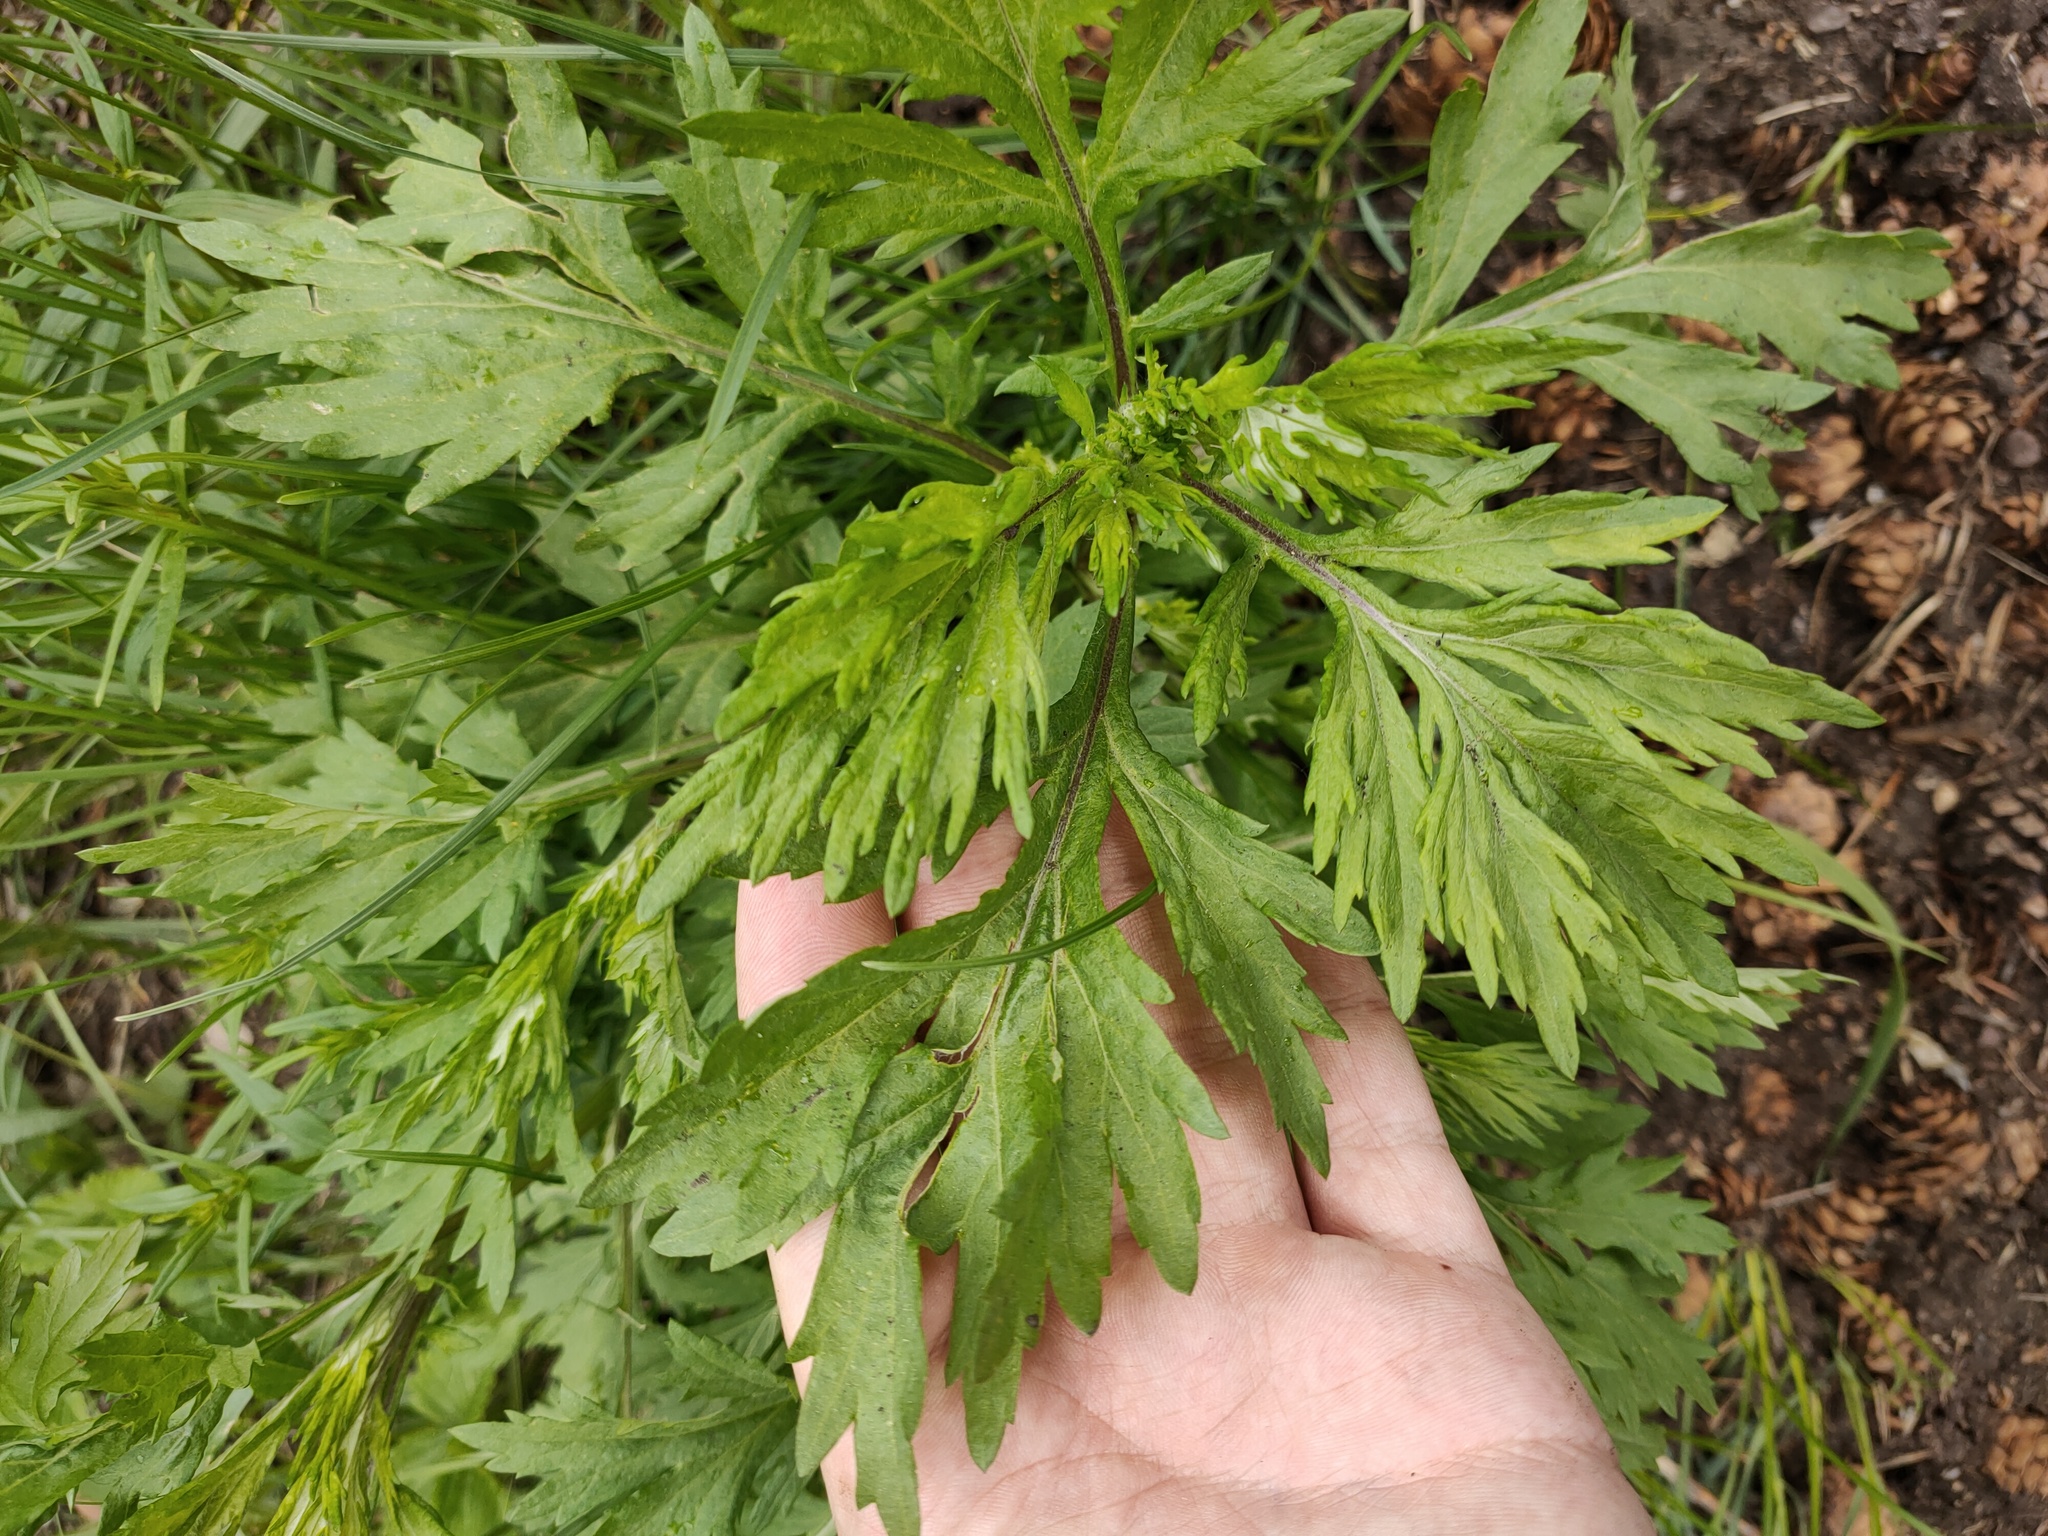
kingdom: Plantae
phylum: Tracheophyta
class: Magnoliopsida
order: Asterales
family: Asteraceae
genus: Artemisia
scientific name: Artemisia vulgaris
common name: Mugwort
